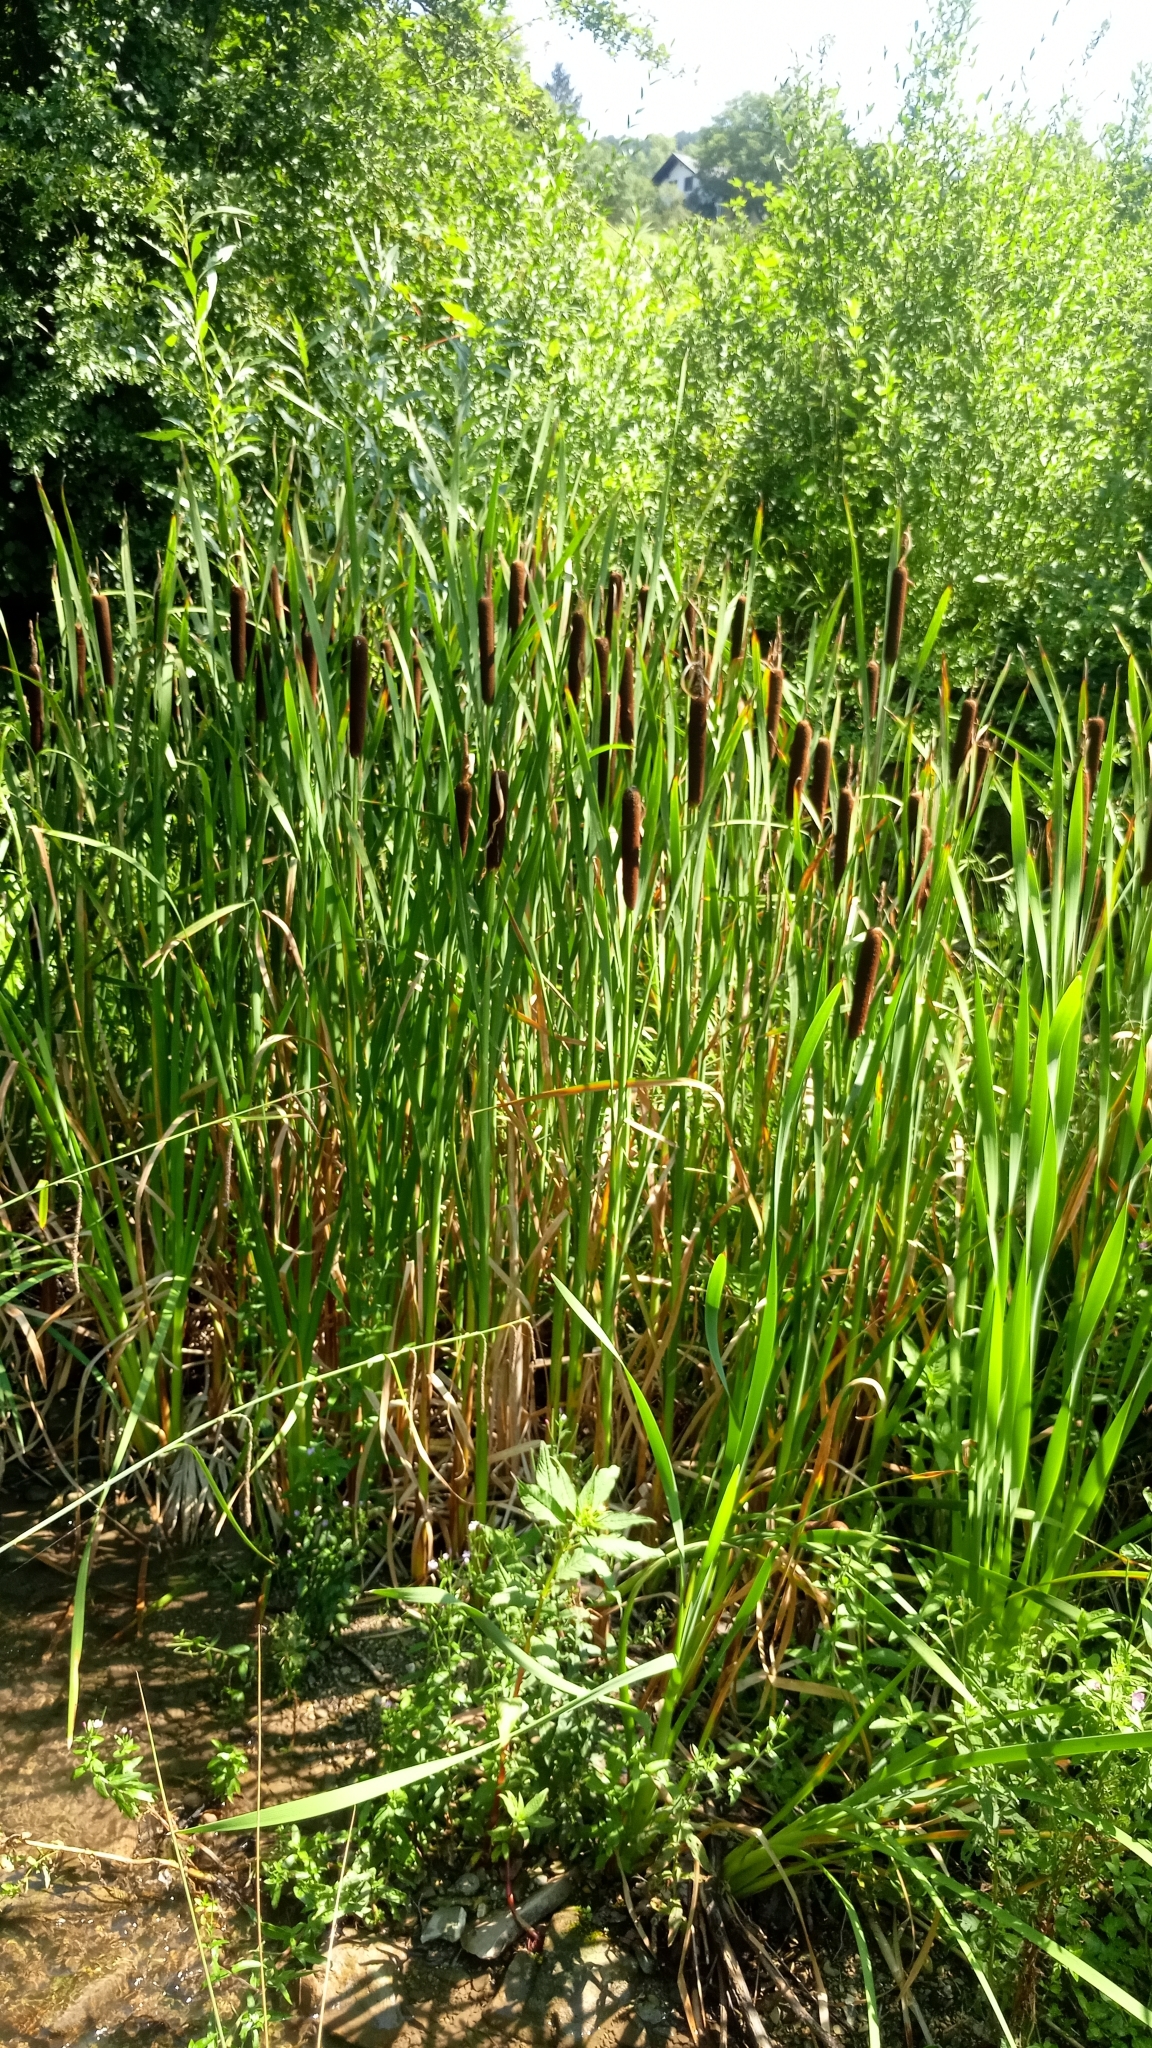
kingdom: Plantae
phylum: Tracheophyta
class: Liliopsida
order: Poales
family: Typhaceae
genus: Typha
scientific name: Typha latifolia
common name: Broadleaf cattail
